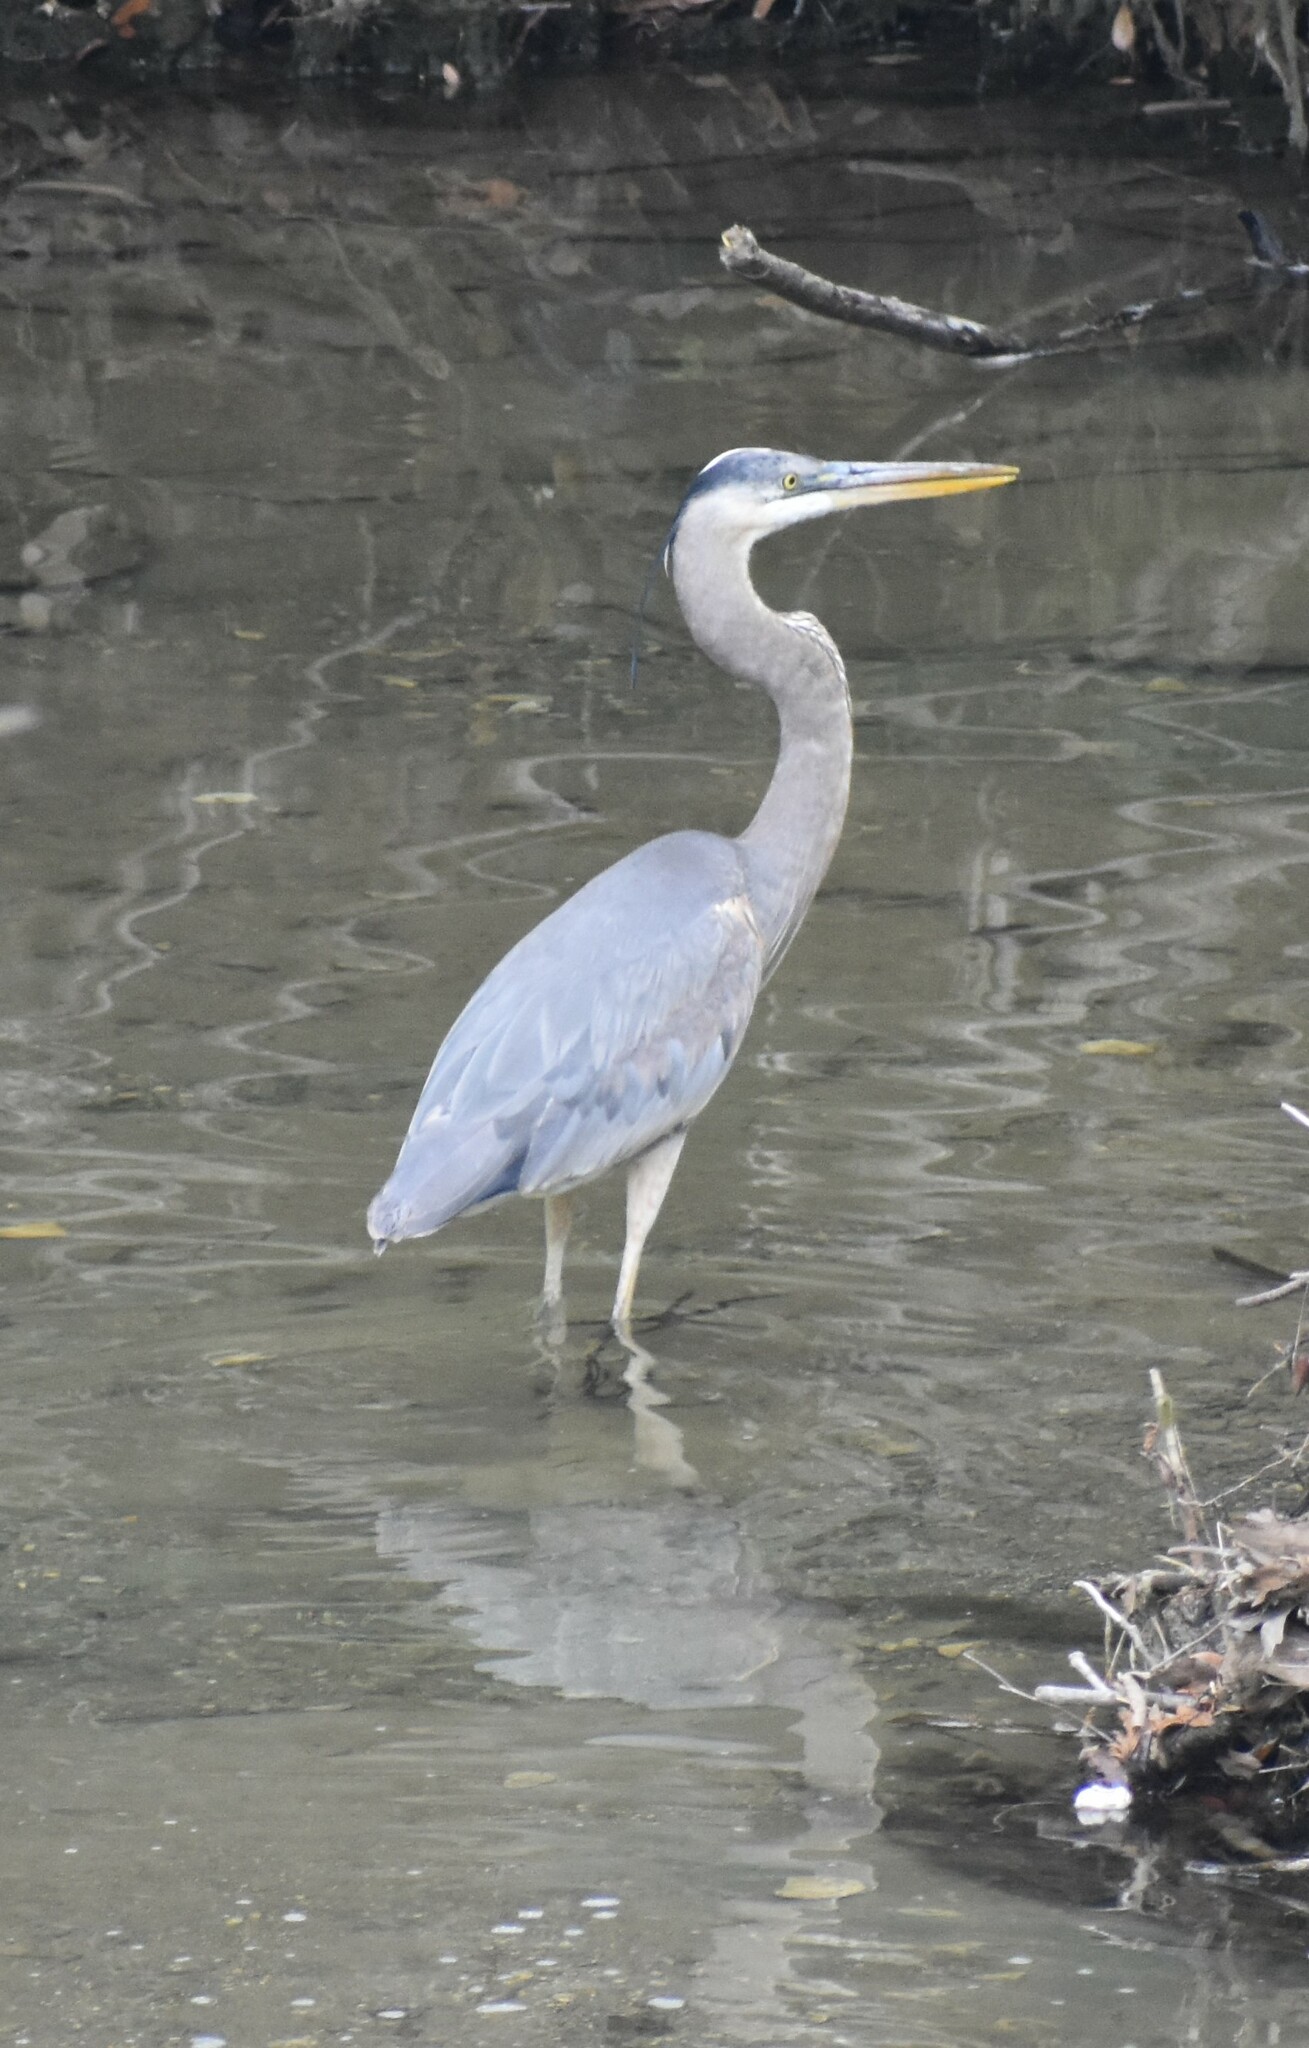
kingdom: Animalia
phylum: Chordata
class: Aves
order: Pelecaniformes
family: Ardeidae
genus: Ardea
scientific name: Ardea herodias
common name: Great blue heron
